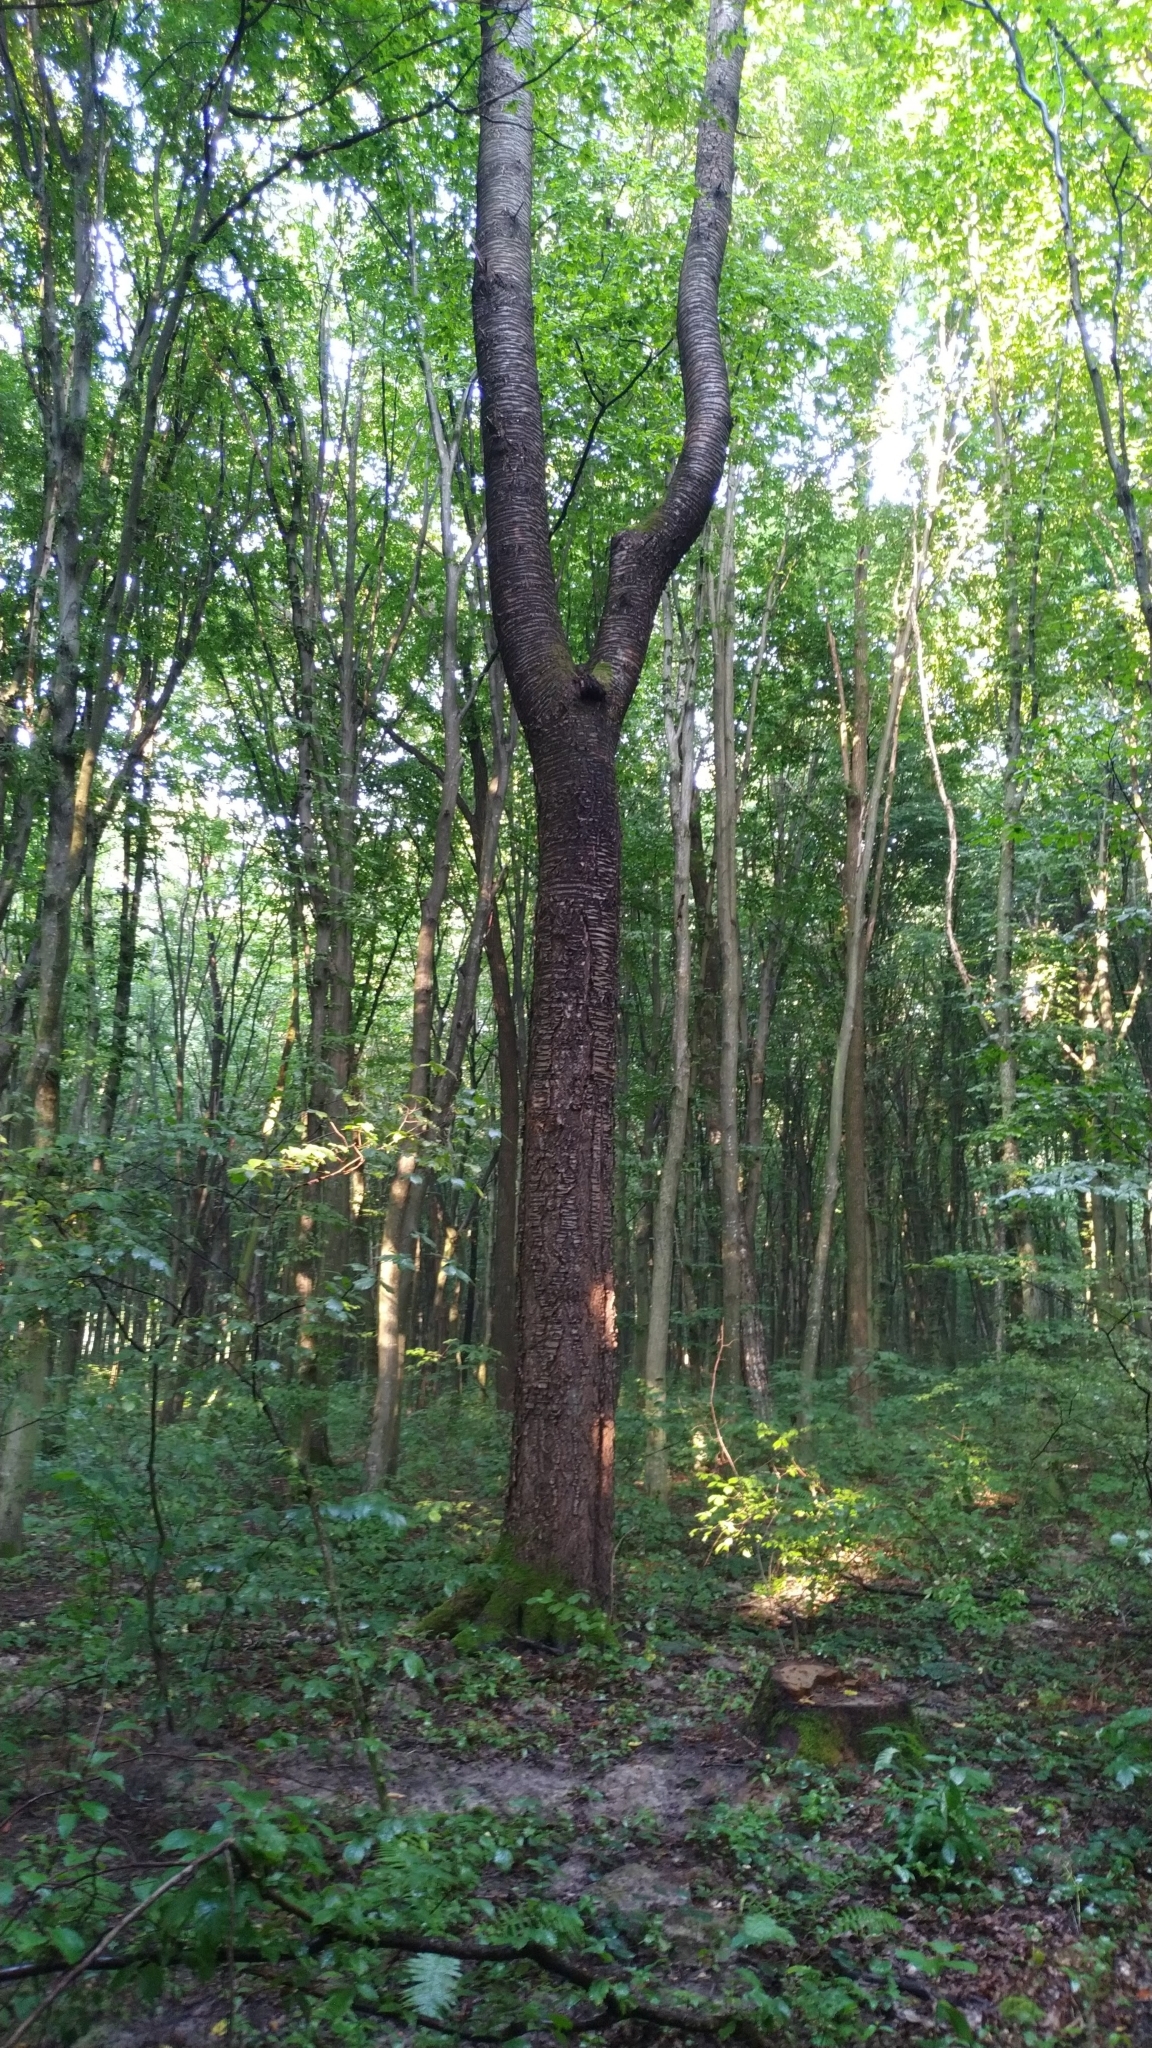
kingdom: Plantae
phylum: Tracheophyta
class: Magnoliopsida
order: Rosales
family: Rosaceae
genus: Prunus
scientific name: Prunus avium
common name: Sweet cherry
